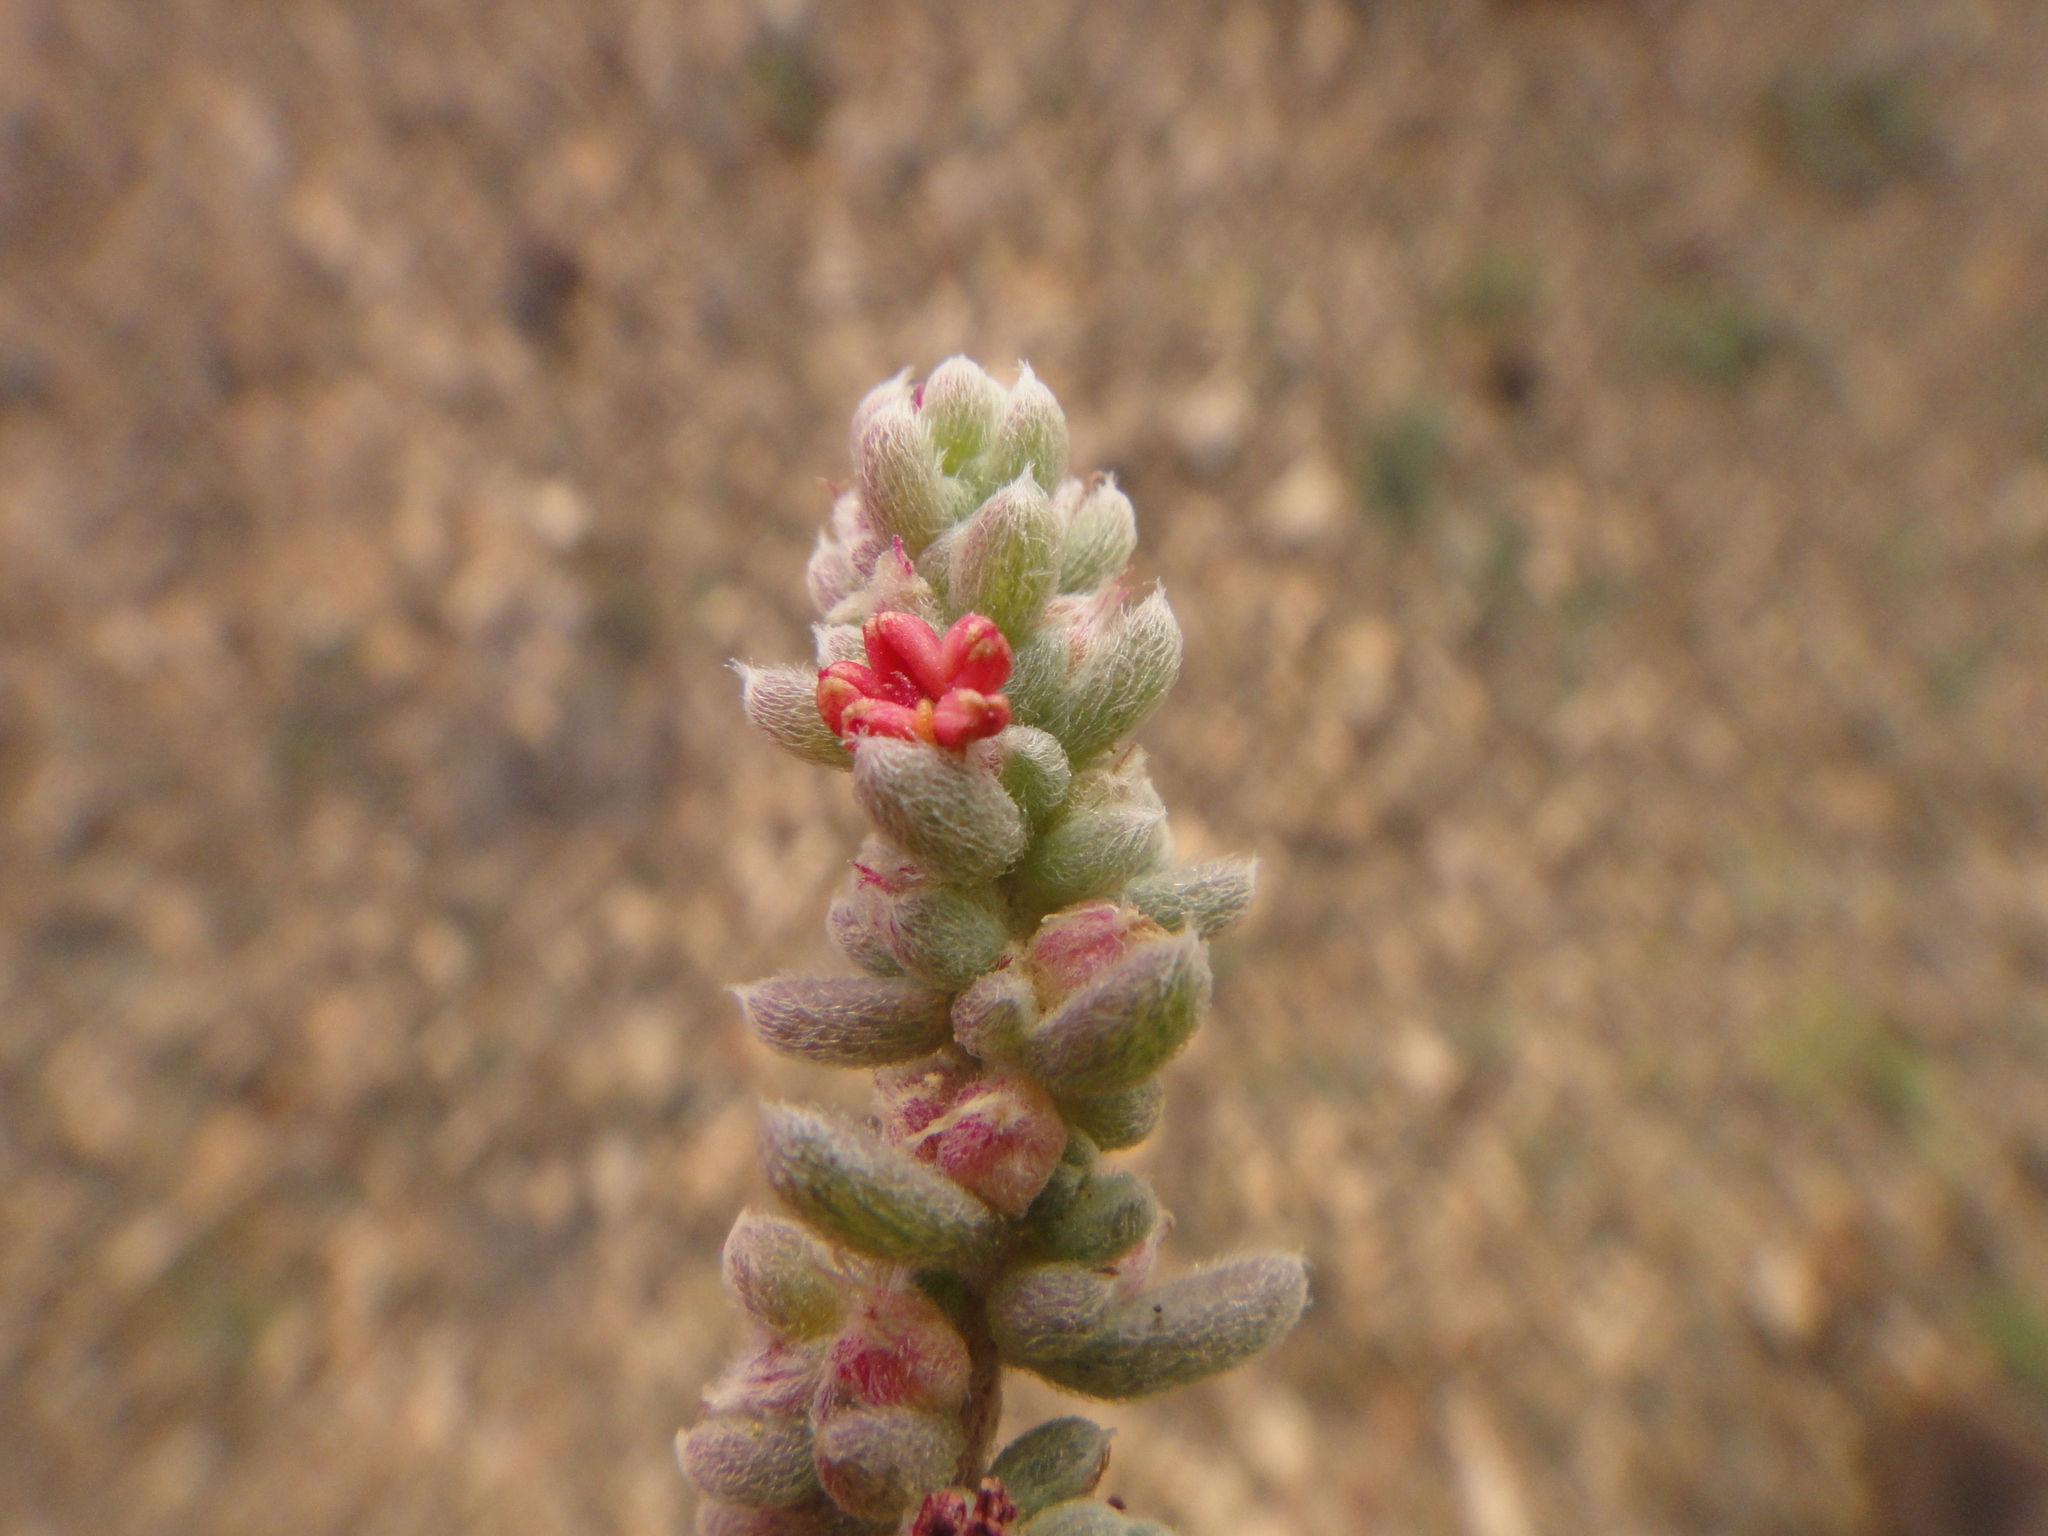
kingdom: Plantae
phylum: Tracheophyta
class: Magnoliopsida
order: Caryophyllales
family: Amaranthaceae
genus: Bassia
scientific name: Bassia tomentosa
